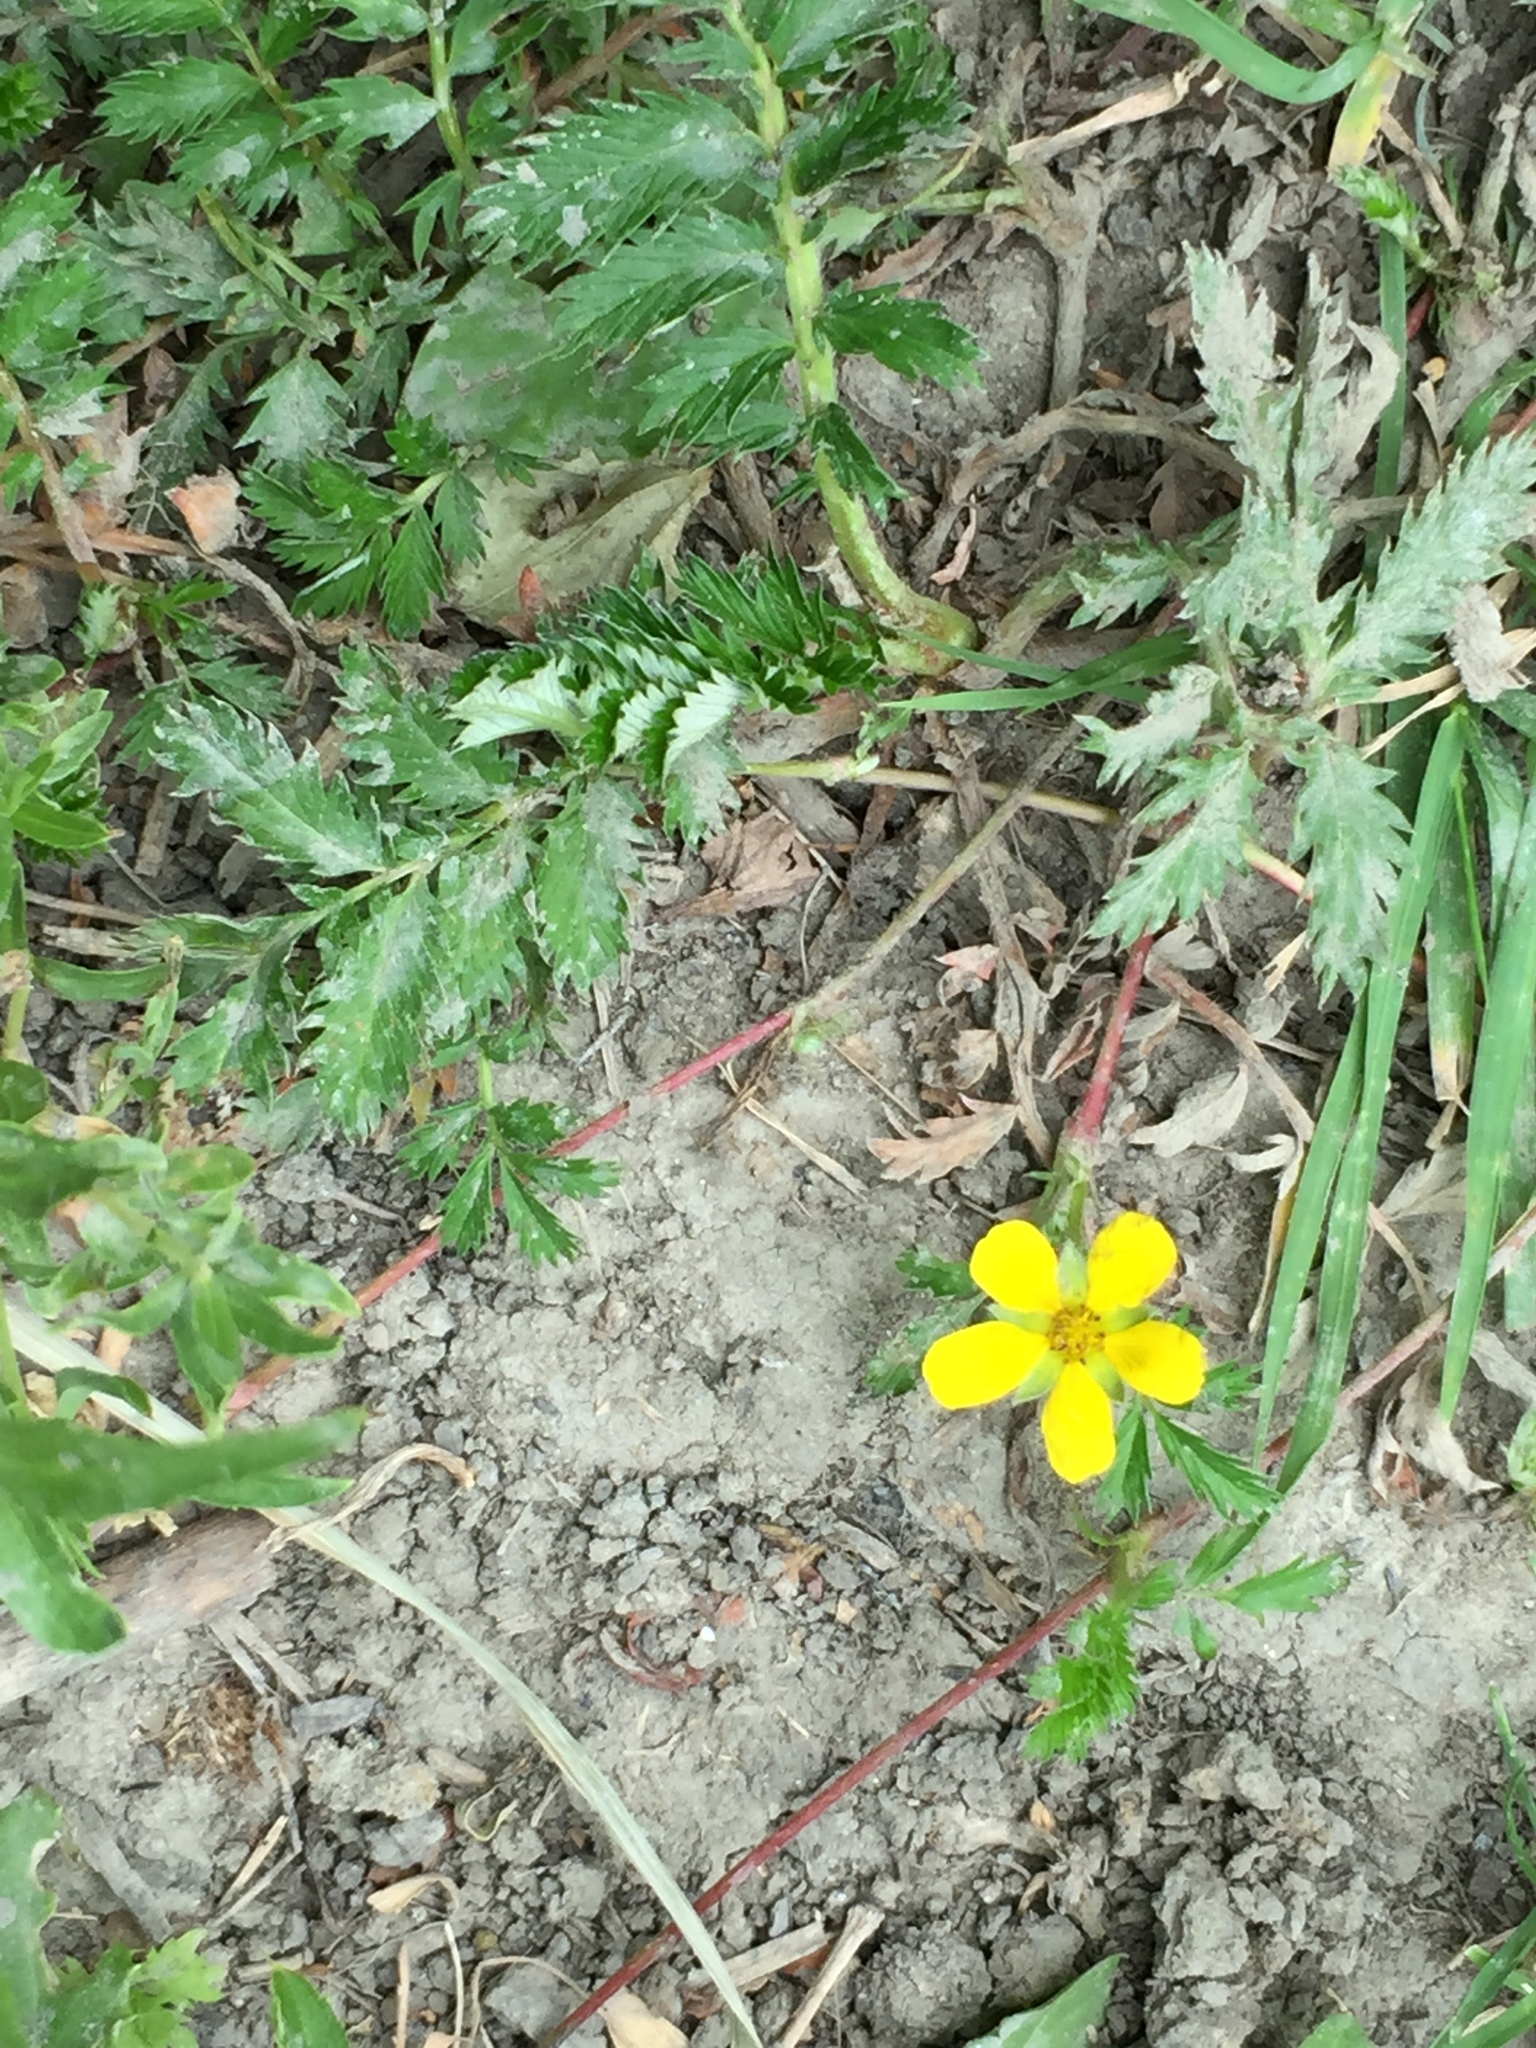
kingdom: Plantae
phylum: Tracheophyta
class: Magnoliopsida
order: Rosales
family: Rosaceae
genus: Argentina
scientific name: Argentina anserina
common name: Common silverweed
